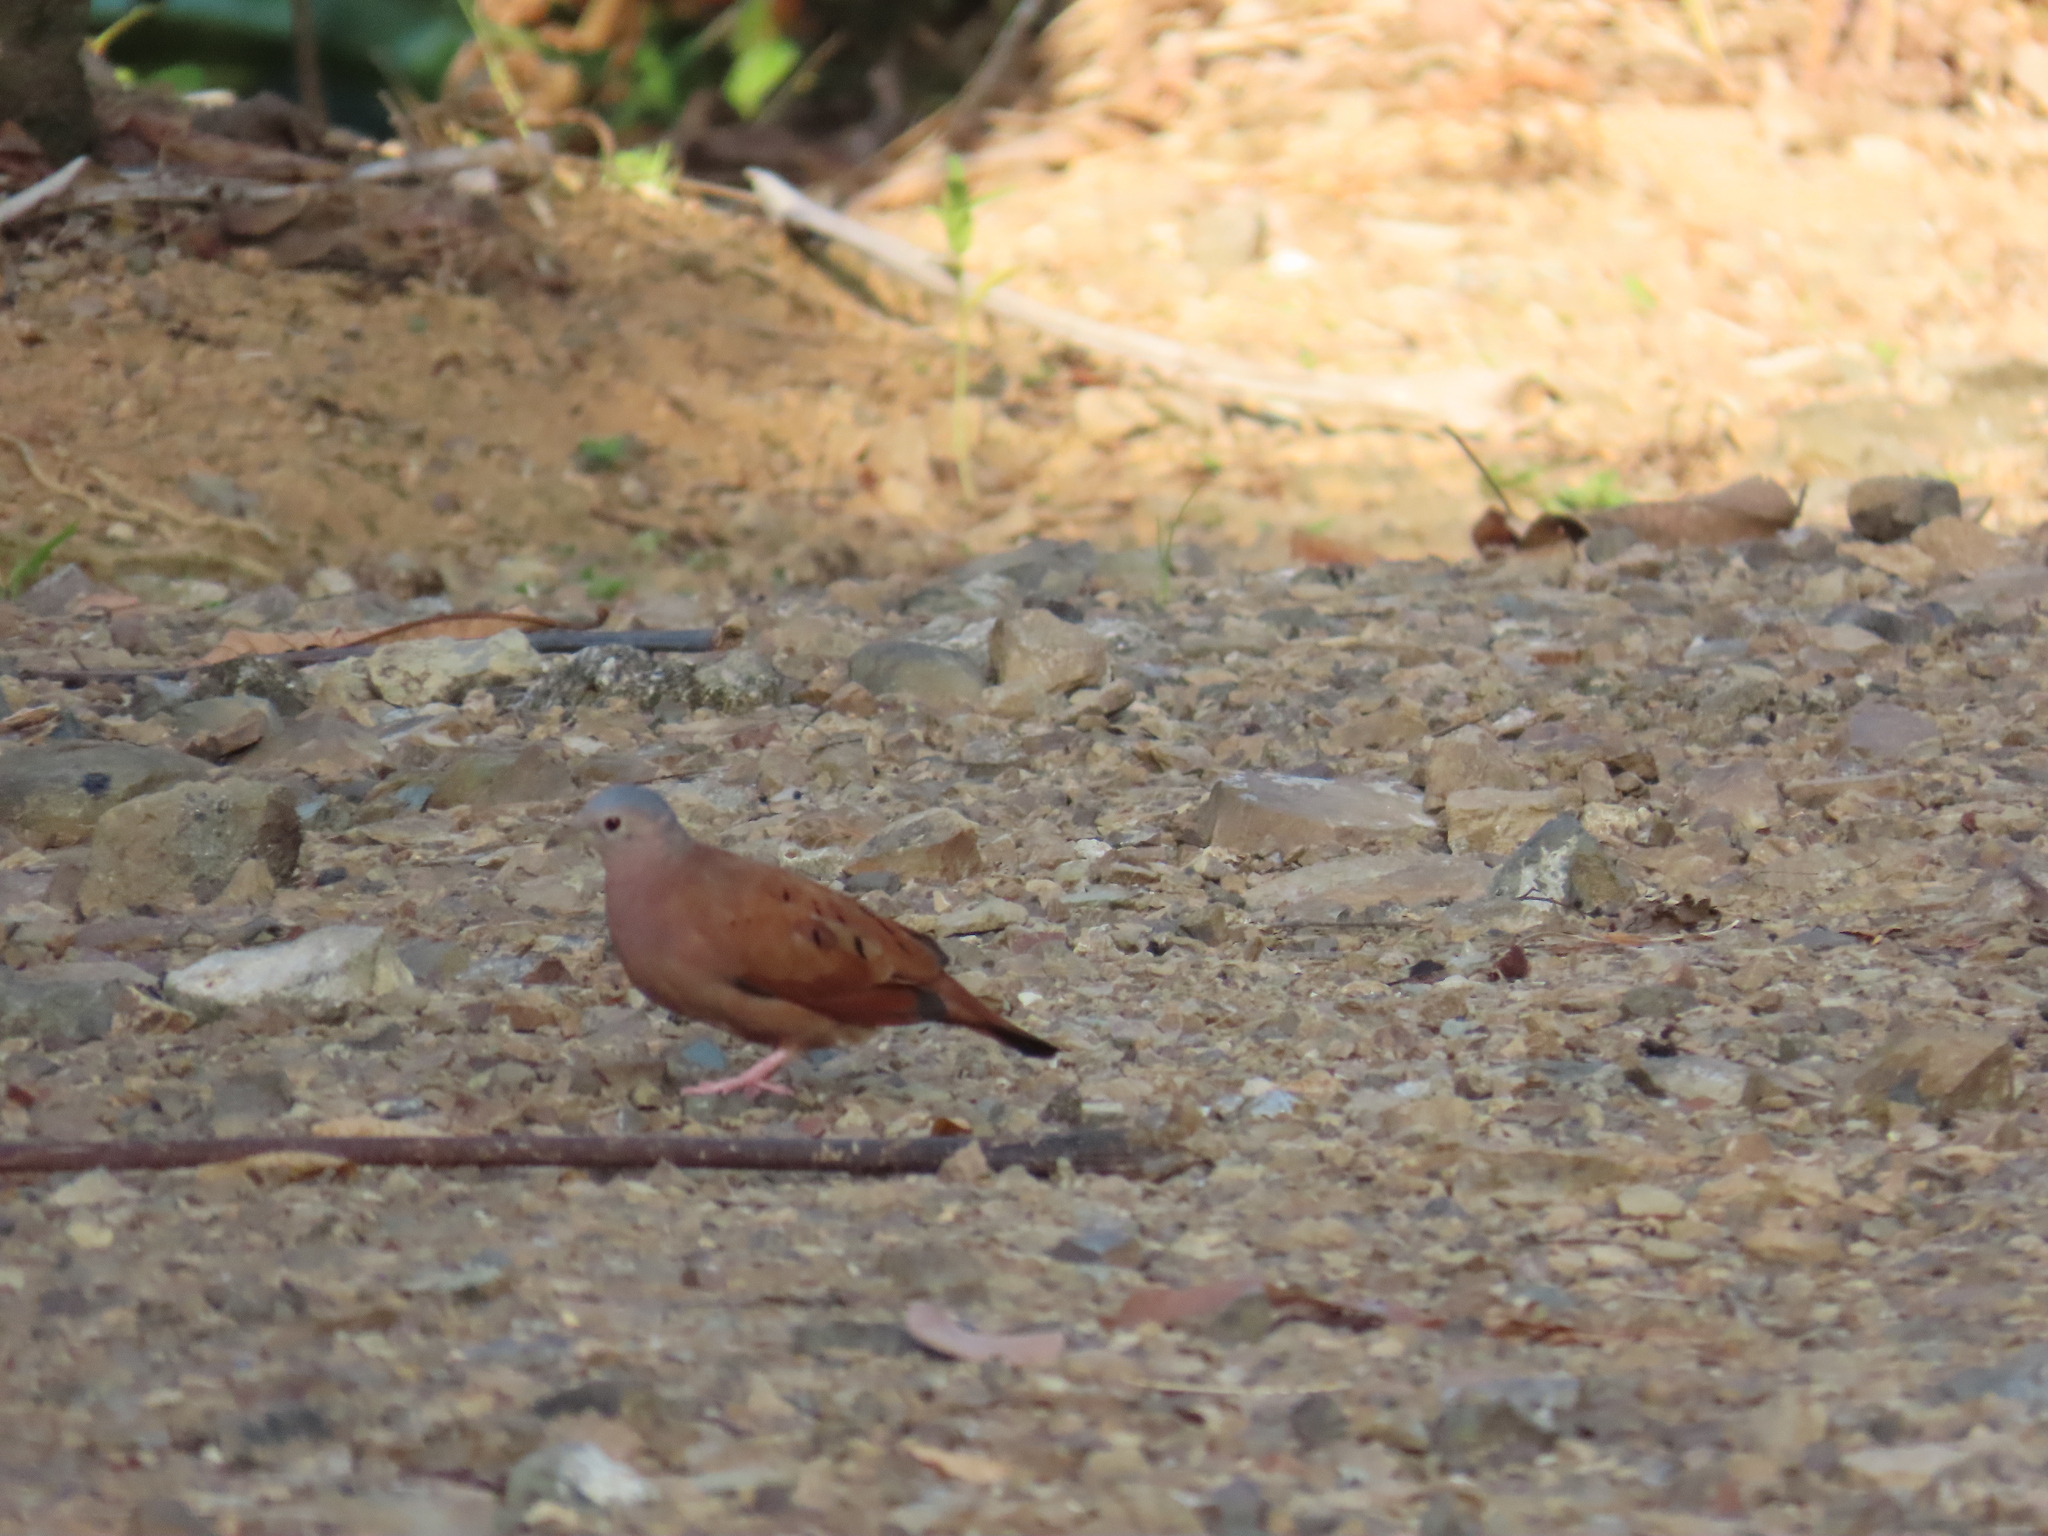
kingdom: Animalia
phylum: Chordata
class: Aves
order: Columbiformes
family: Columbidae
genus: Columbina
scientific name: Columbina talpacoti
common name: Ruddy ground dove
